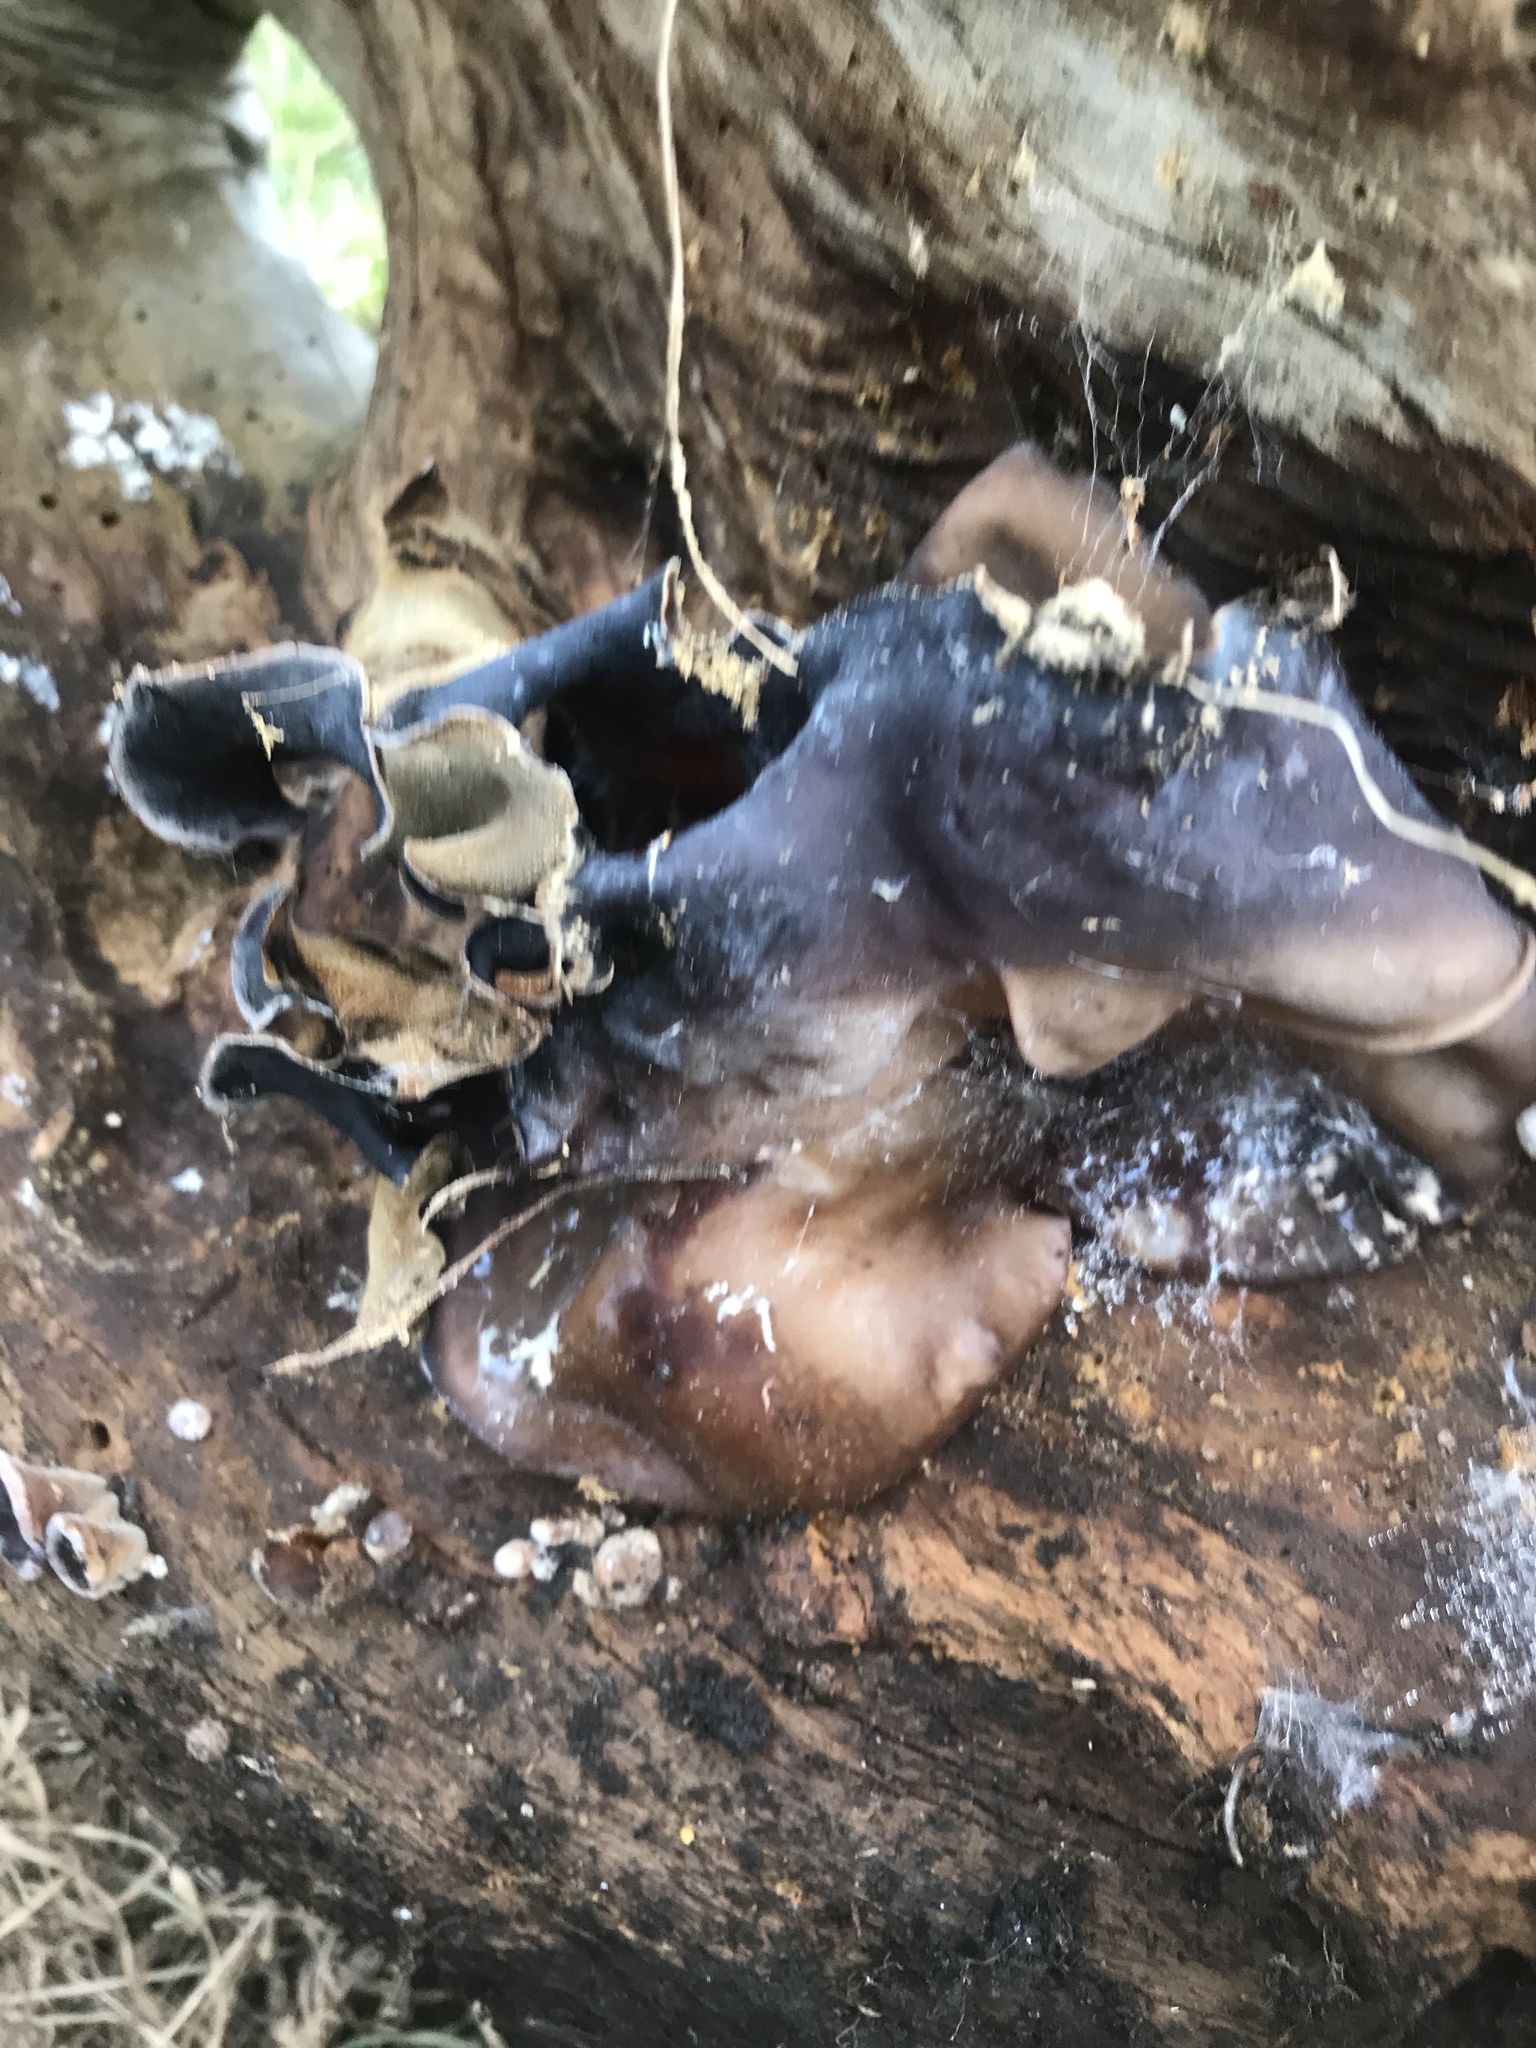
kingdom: Fungi
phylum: Basidiomycota
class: Agaricomycetes
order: Auriculariales
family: Auriculariaceae
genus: Auricularia
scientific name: Auricularia cornea
